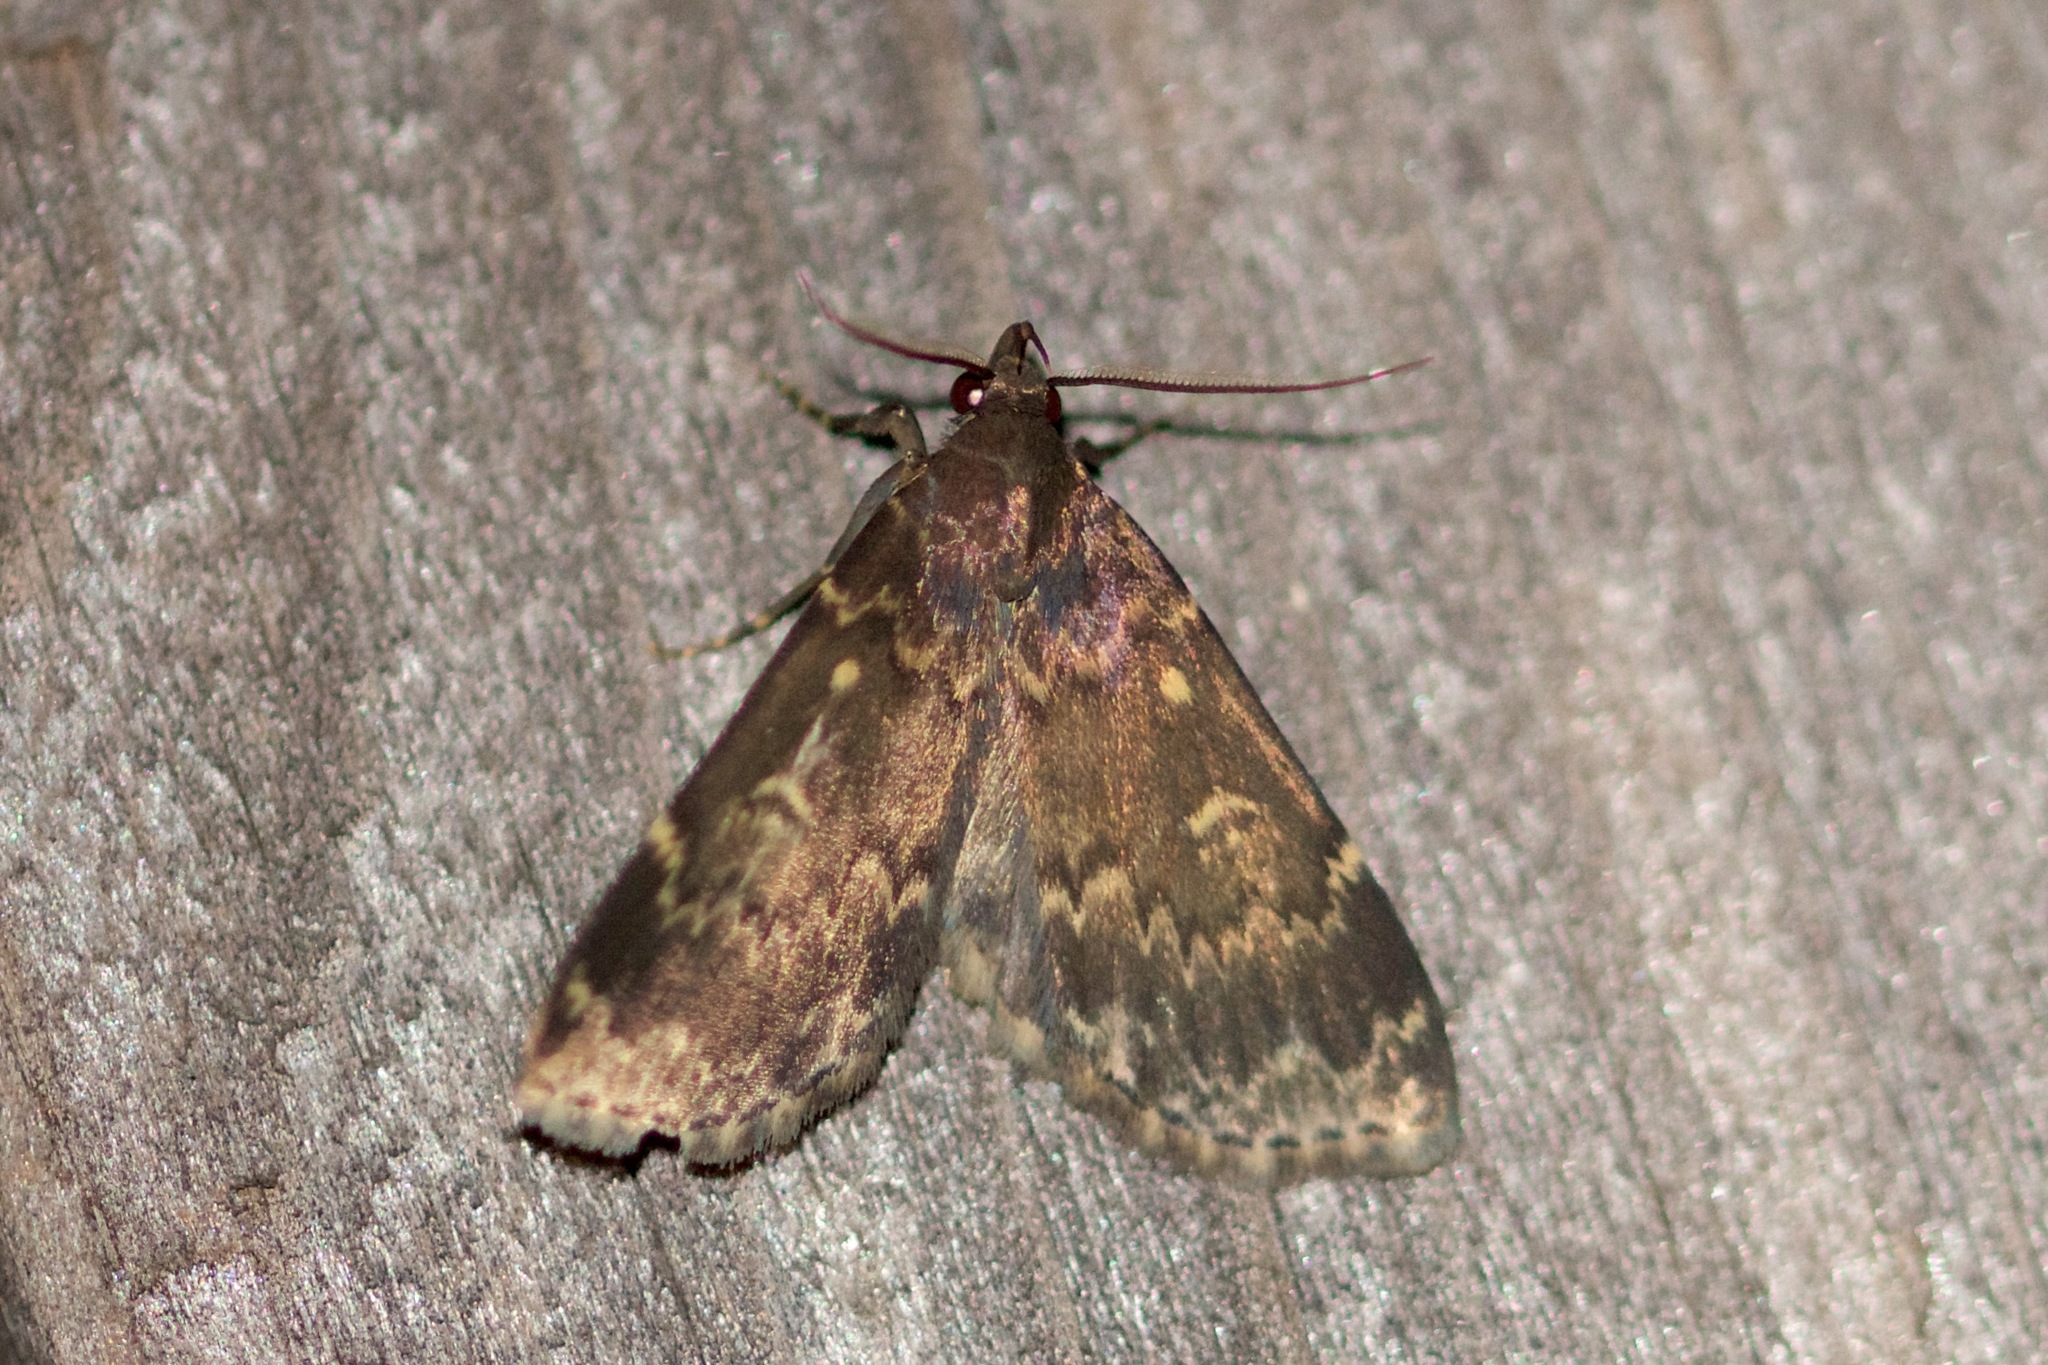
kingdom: Animalia
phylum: Arthropoda
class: Insecta
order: Lepidoptera
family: Erebidae
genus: Idia
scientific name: Idia lubricalis
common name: Twin-striped tabby
